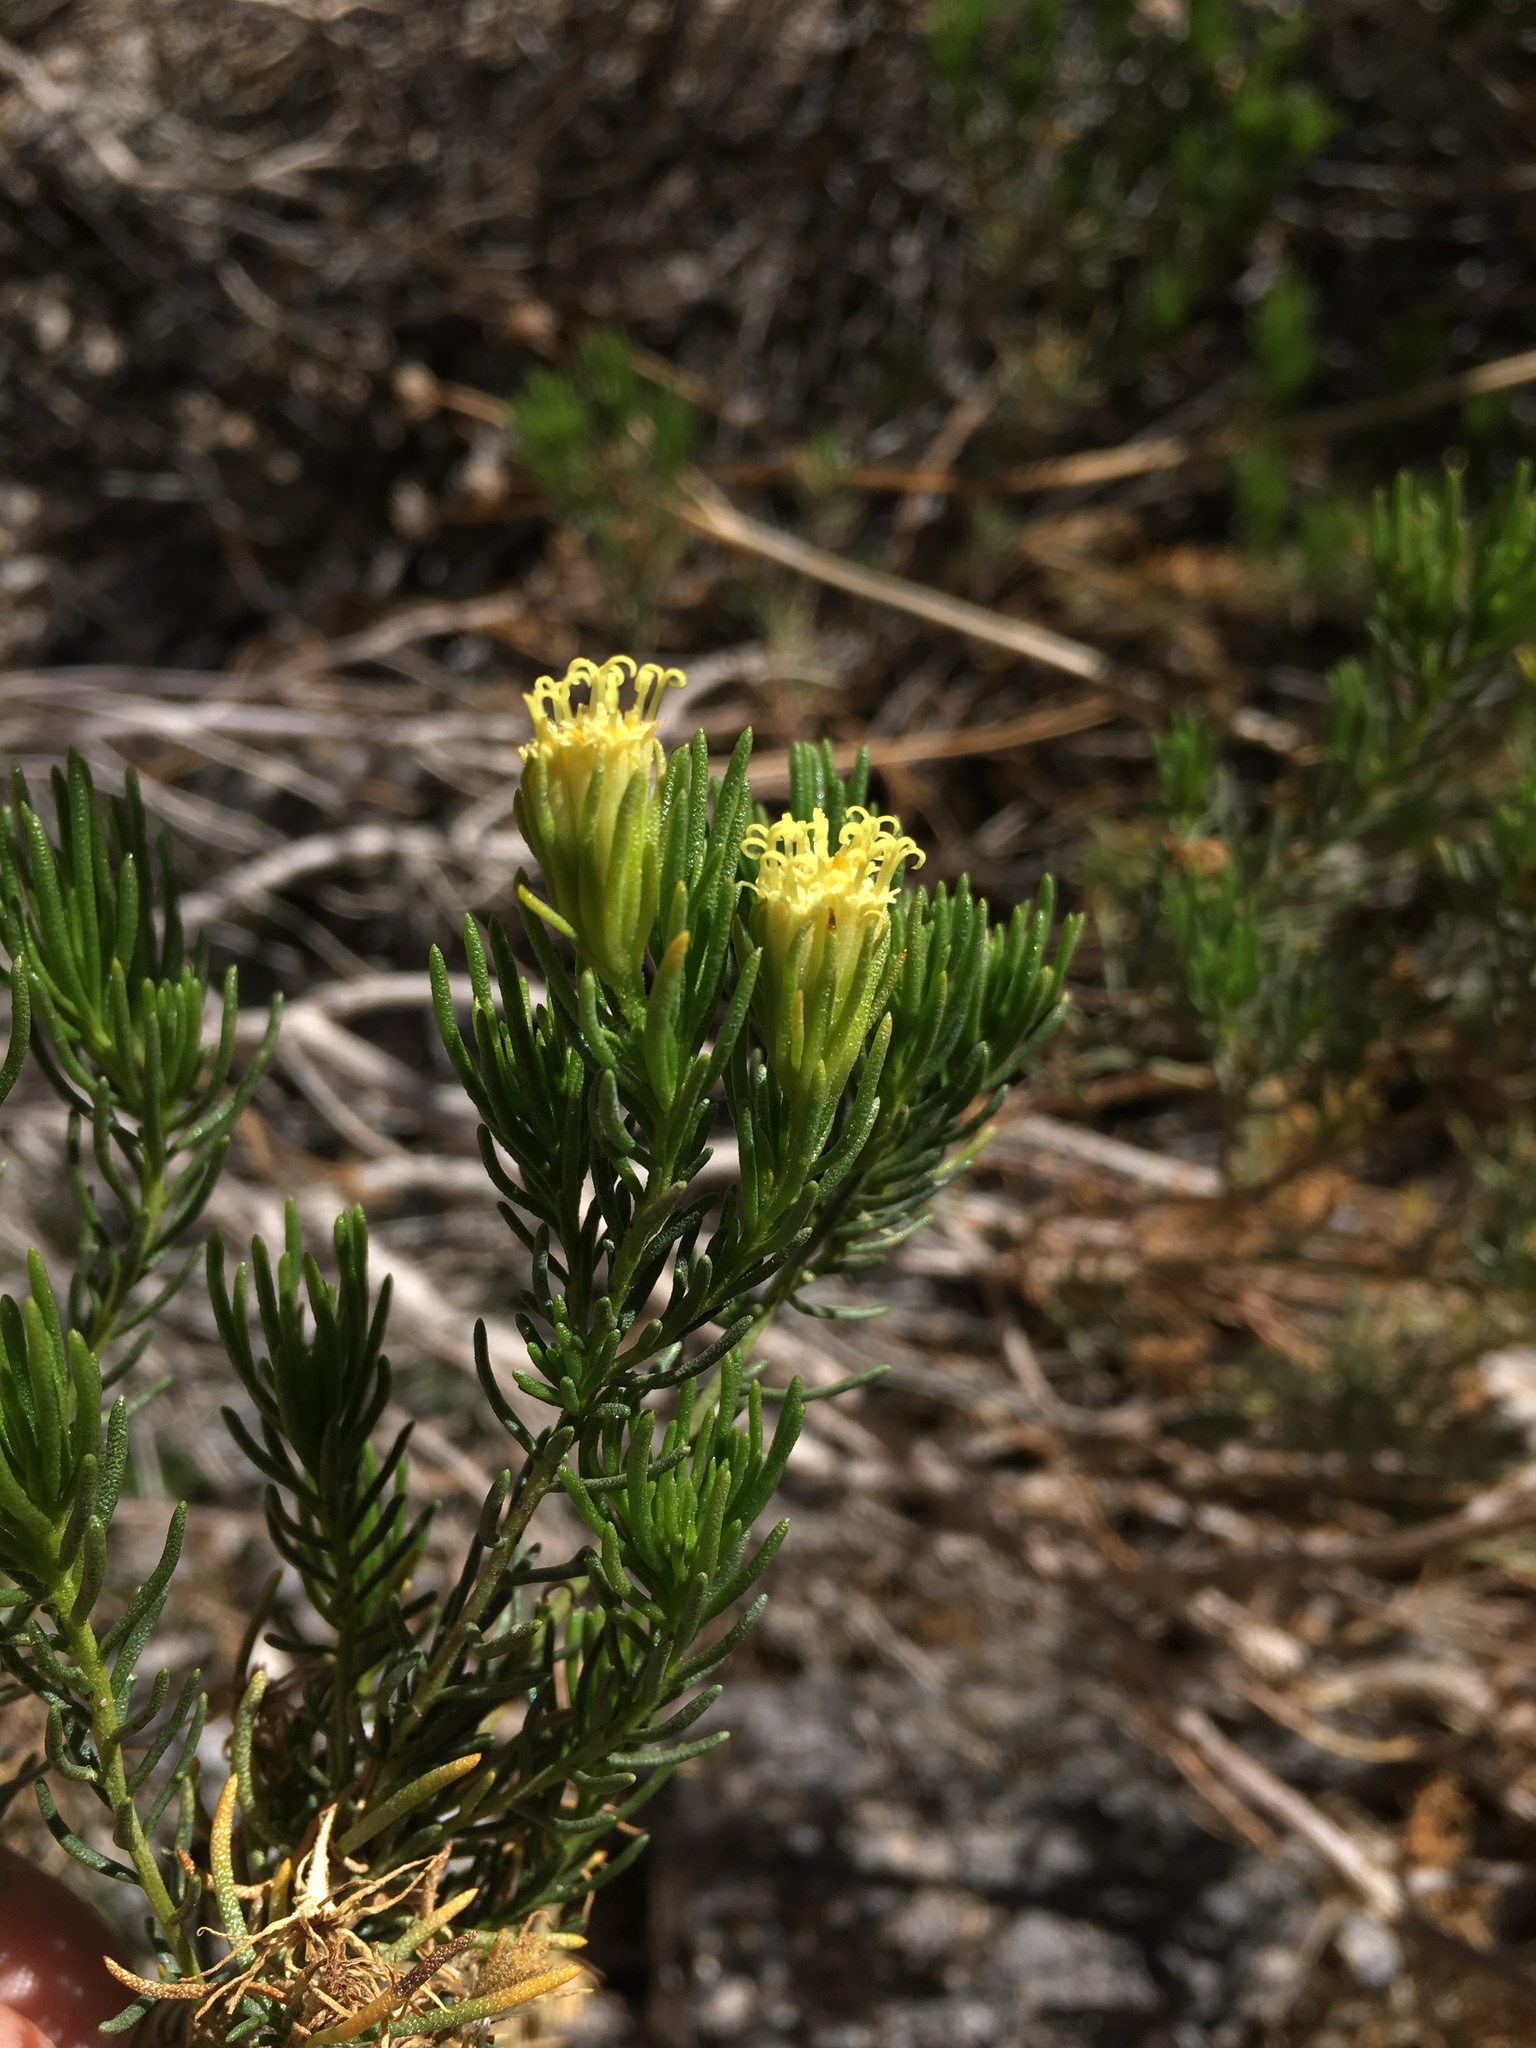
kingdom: Plantae
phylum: Tracheophyta
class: Magnoliopsida
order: Asterales
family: Asteraceae
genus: Peucephyllum
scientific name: Peucephyllum schottii
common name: Pygmy-cedar
